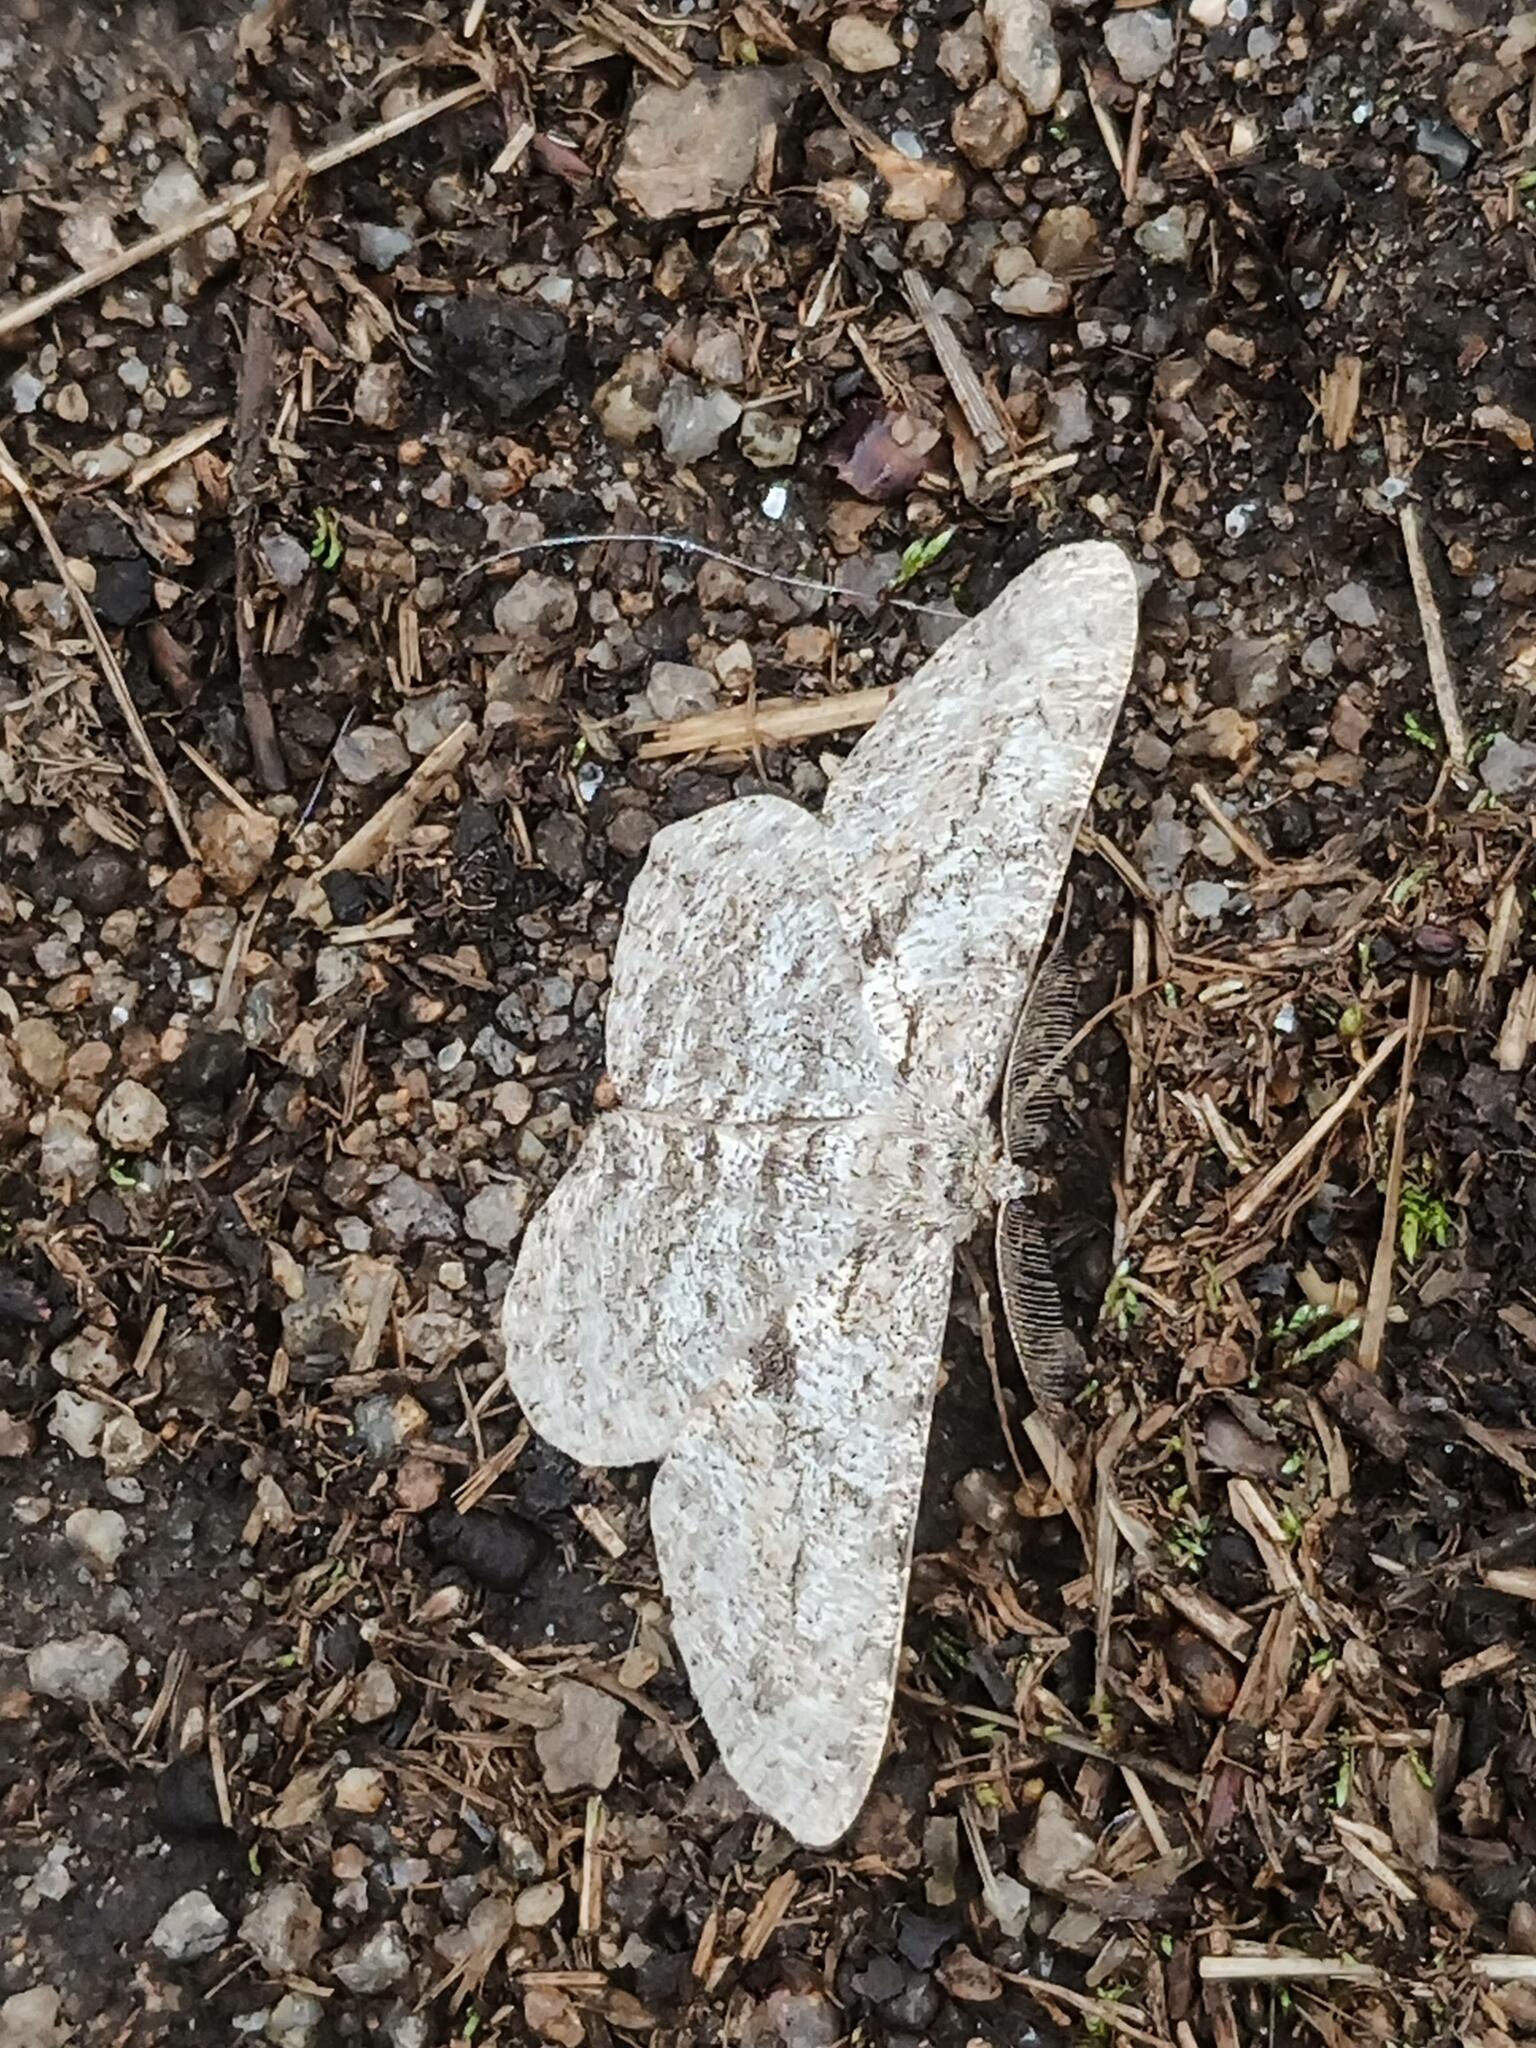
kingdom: Animalia
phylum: Arthropoda
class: Insecta
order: Lepidoptera
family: Geometridae
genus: Peribatodes
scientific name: Peribatodes rhomboidaria
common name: Willow beauty
